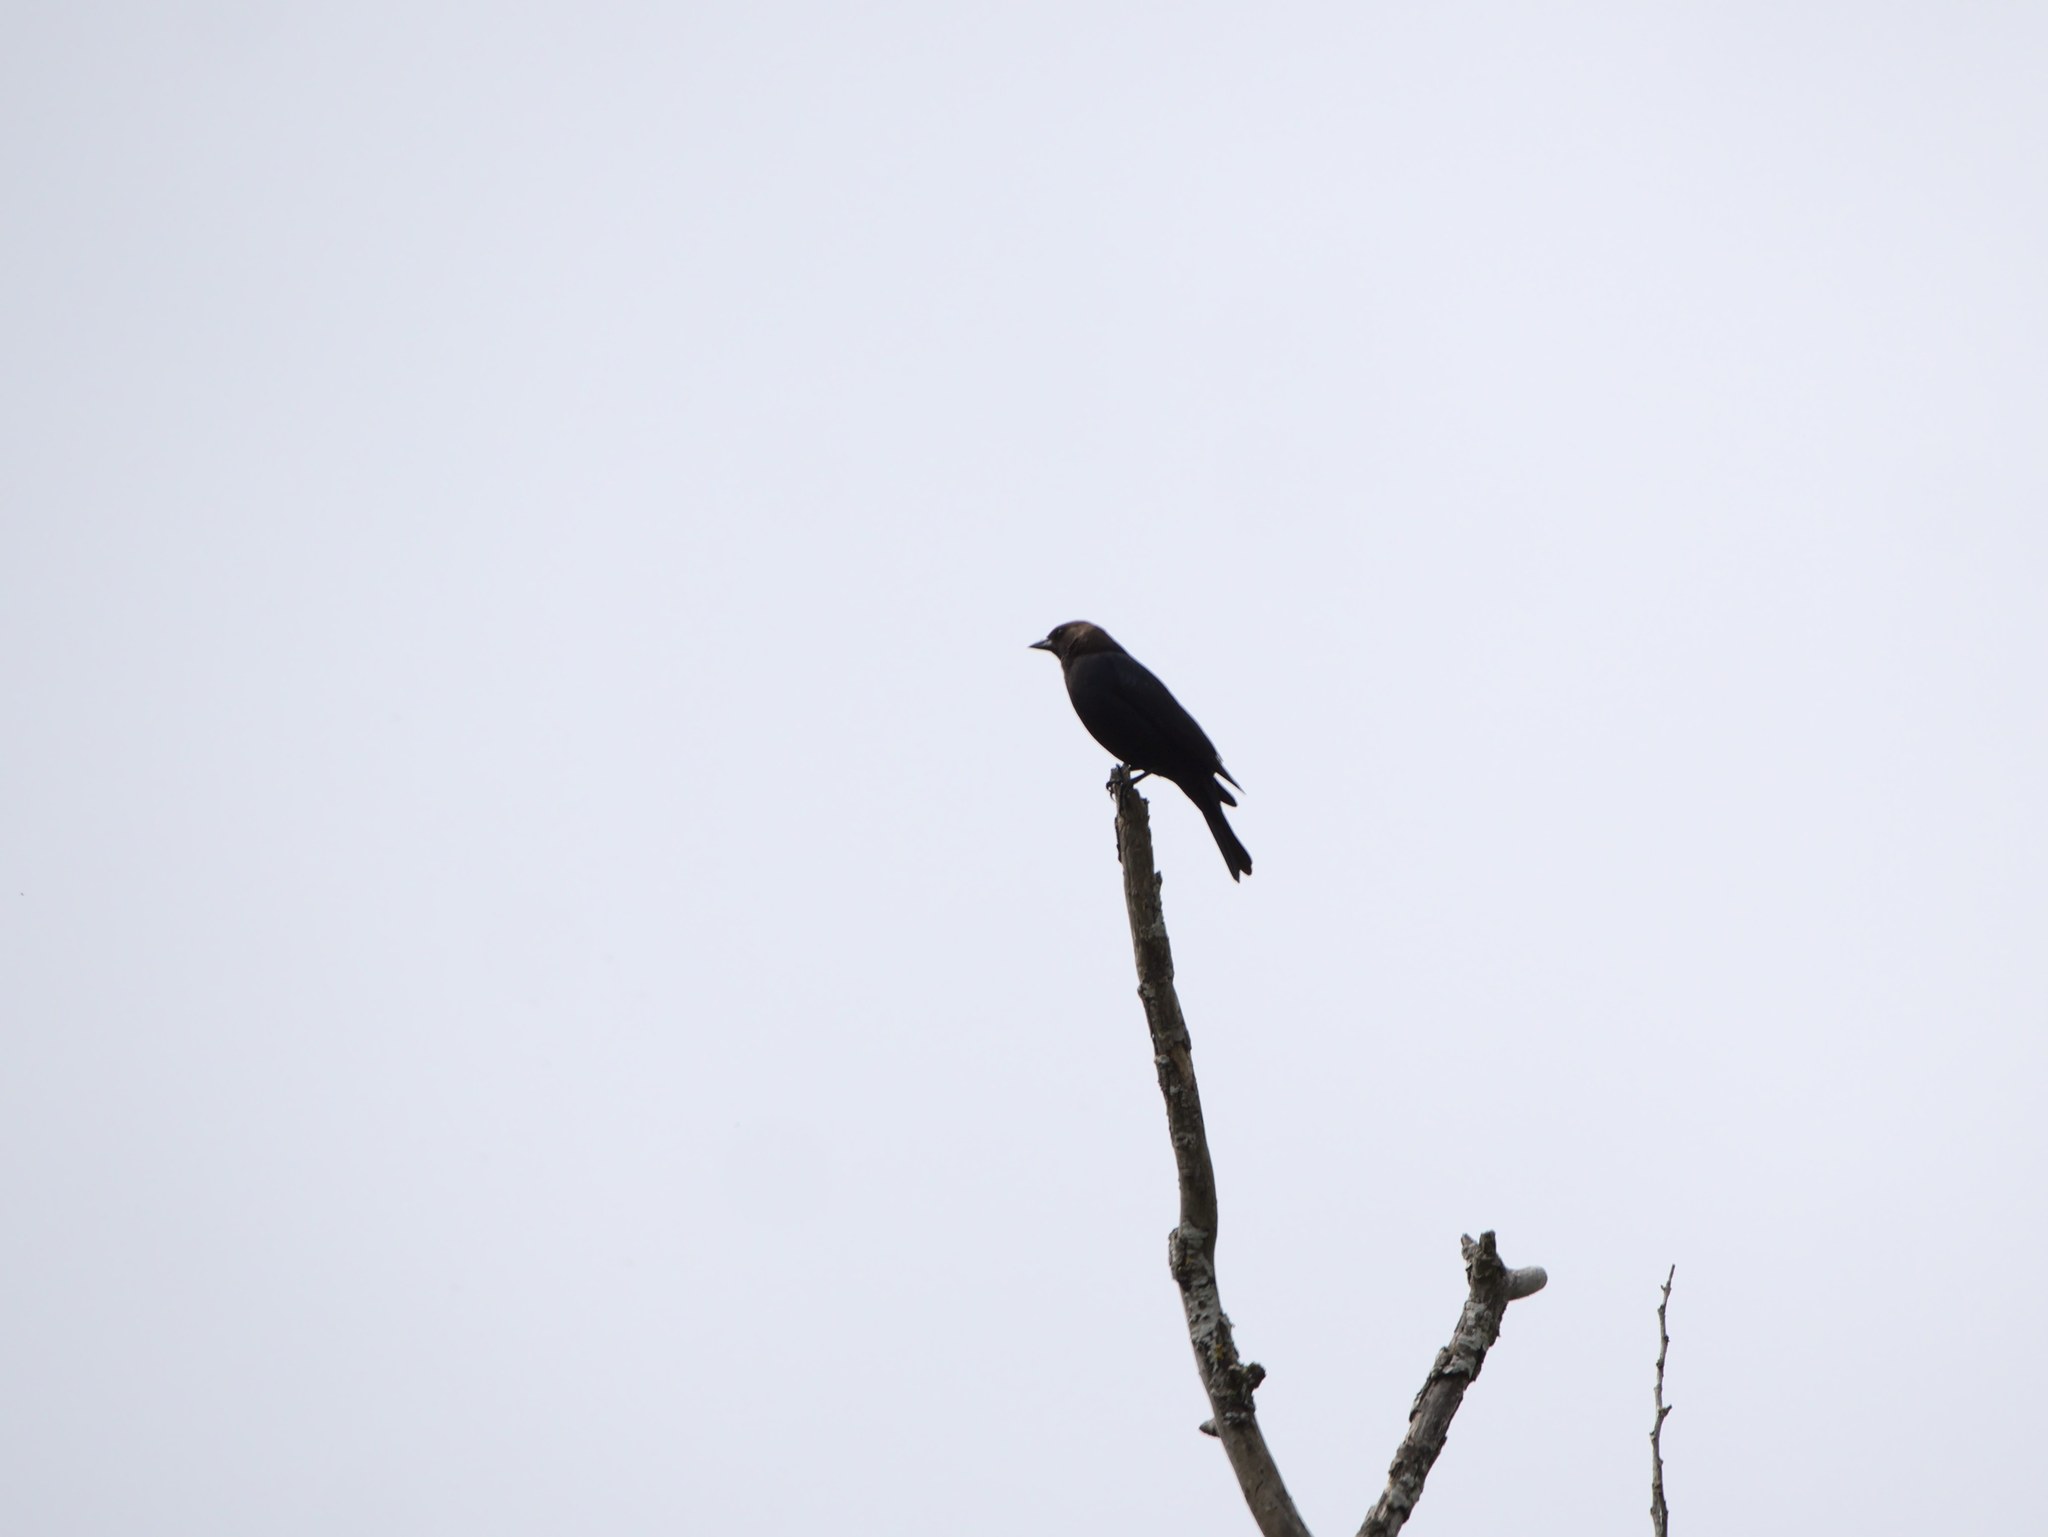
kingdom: Animalia
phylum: Chordata
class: Aves
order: Passeriformes
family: Icteridae
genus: Molothrus
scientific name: Molothrus ater
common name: Brown-headed cowbird
